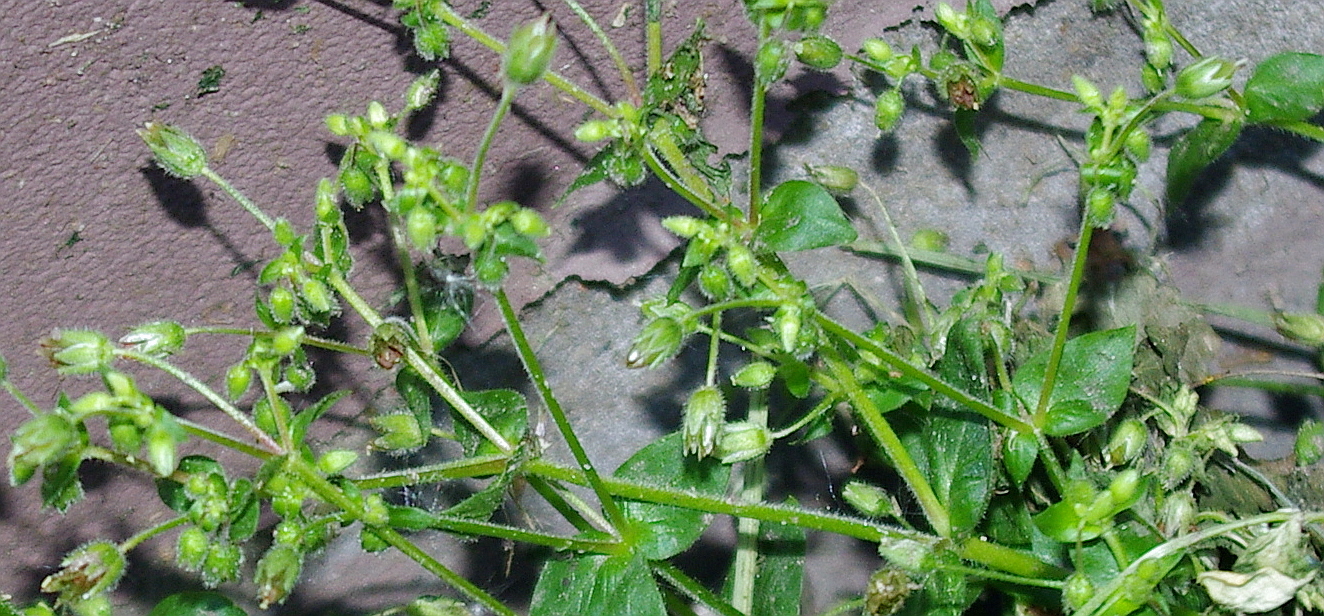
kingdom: Plantae
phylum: Tracheophyta
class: Magnoliopsida
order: Caryophyllales
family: Caryophyllaceae
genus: Stellaria
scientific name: Stellaria media
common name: Common chickweed
